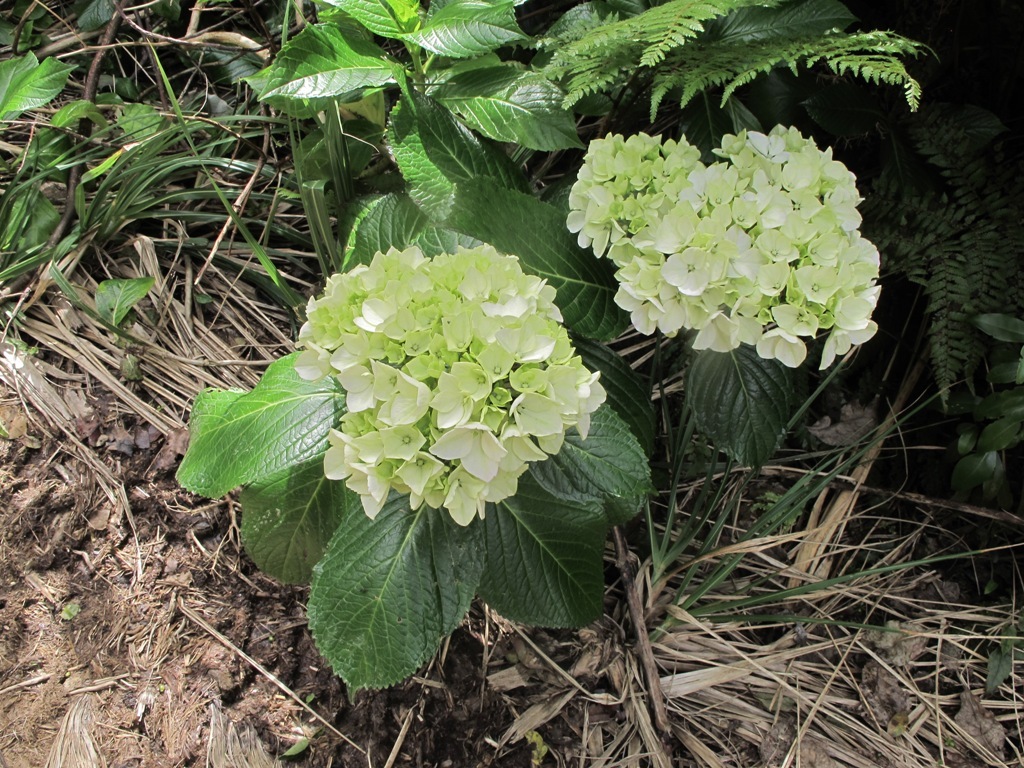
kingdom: Plantae
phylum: Tracheophyta
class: Magnoliopsida
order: Cornales
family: Hydrangeaceae
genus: Hydrangea
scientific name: Hydrangea macrophylla
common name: Hydrangea
